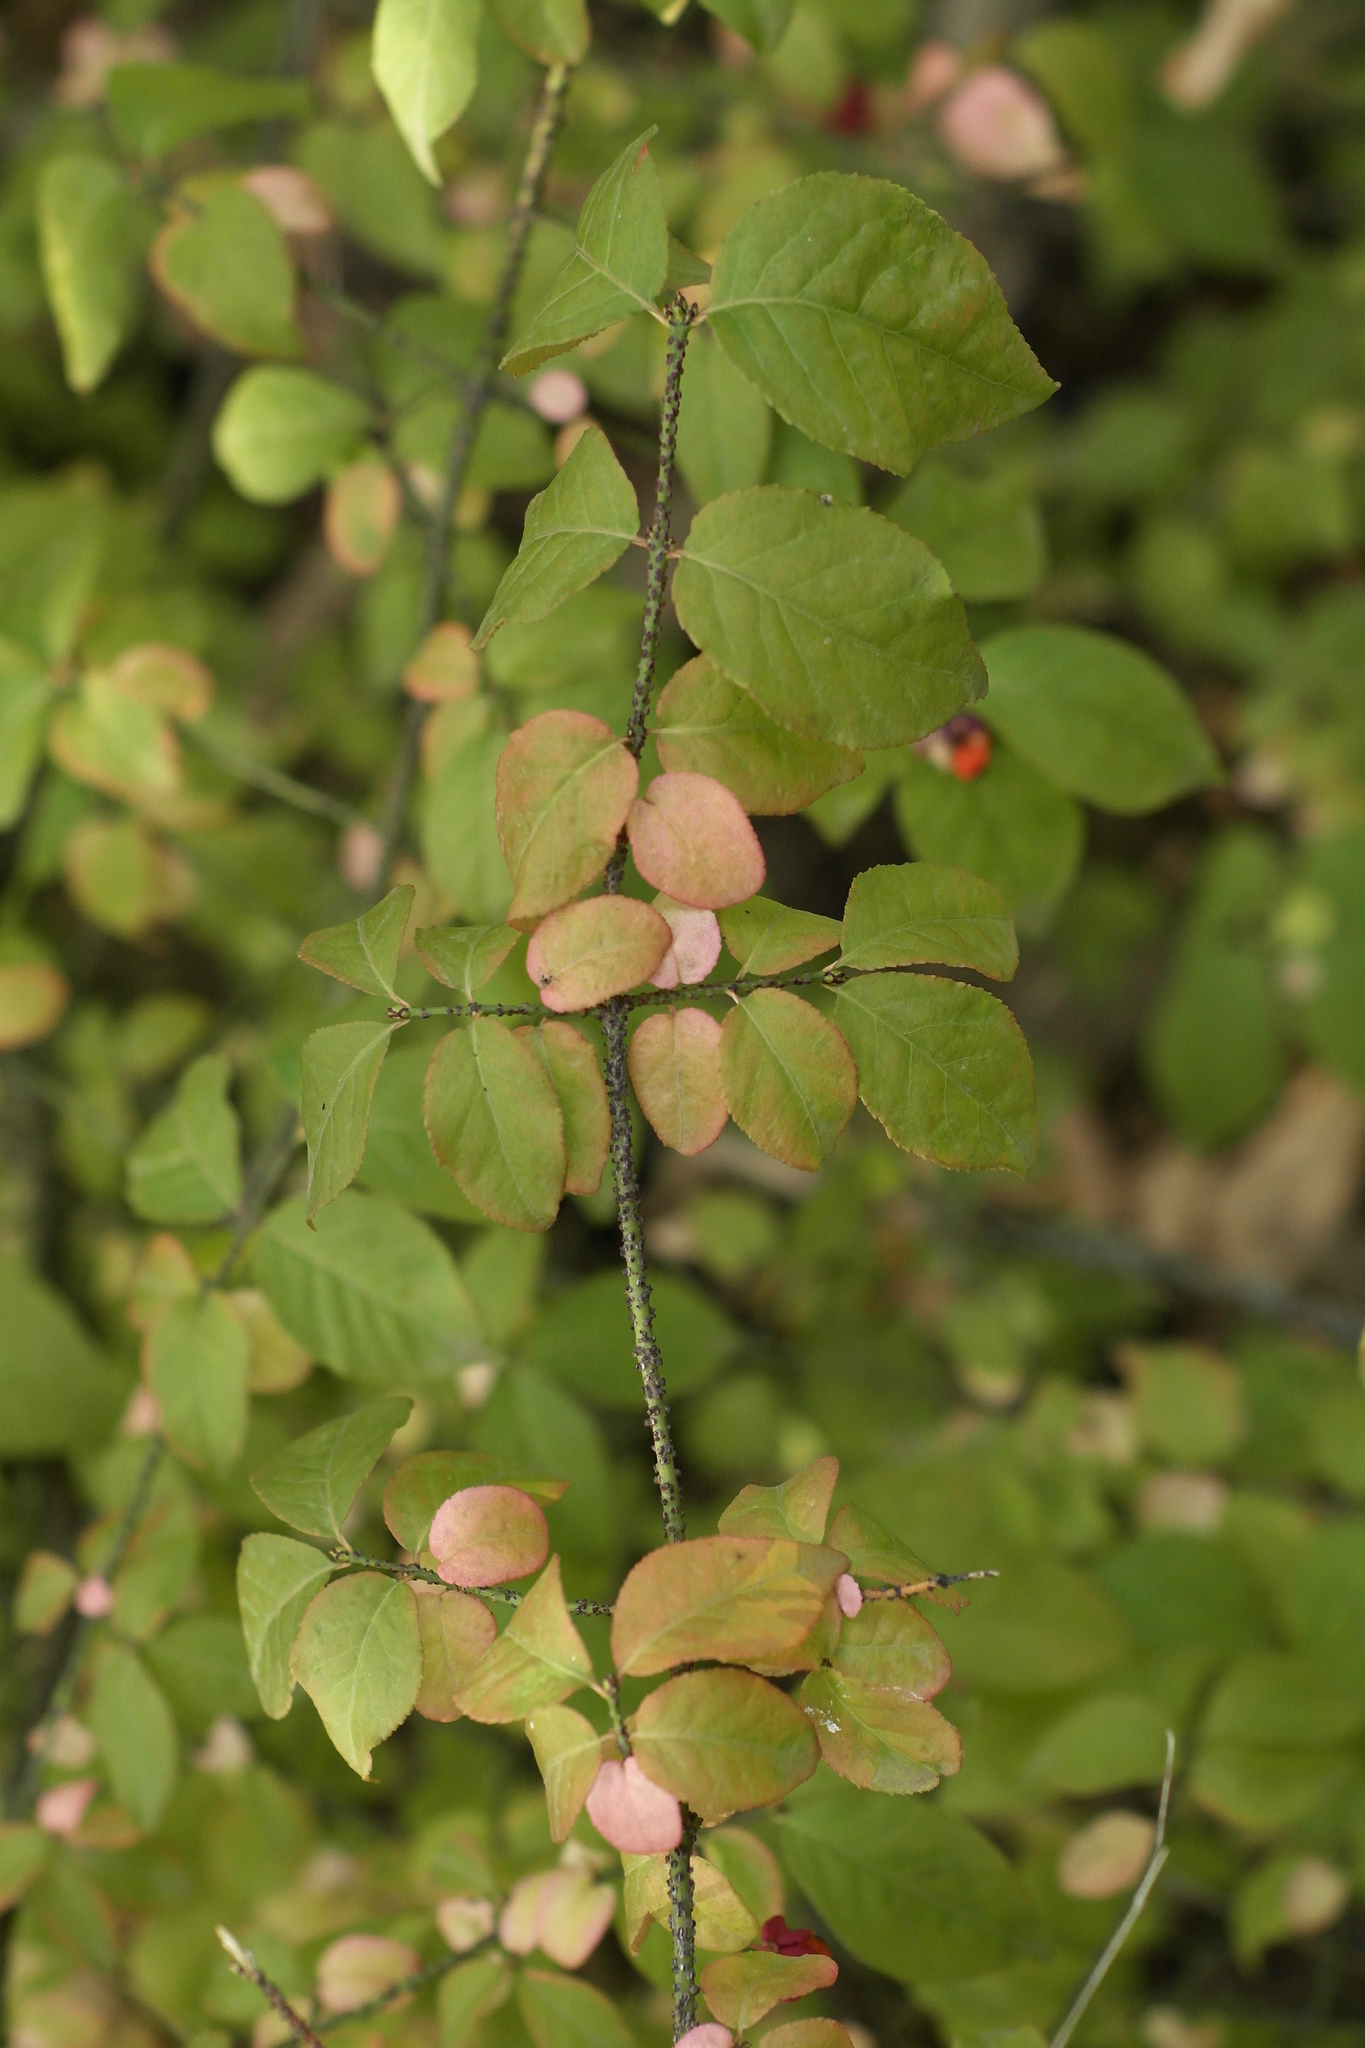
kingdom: Plantae
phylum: Tracheophyta
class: Magnoliopsida
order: Celastrales
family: Celastraceae
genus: Euonymus
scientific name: Euonymus verrucosus
